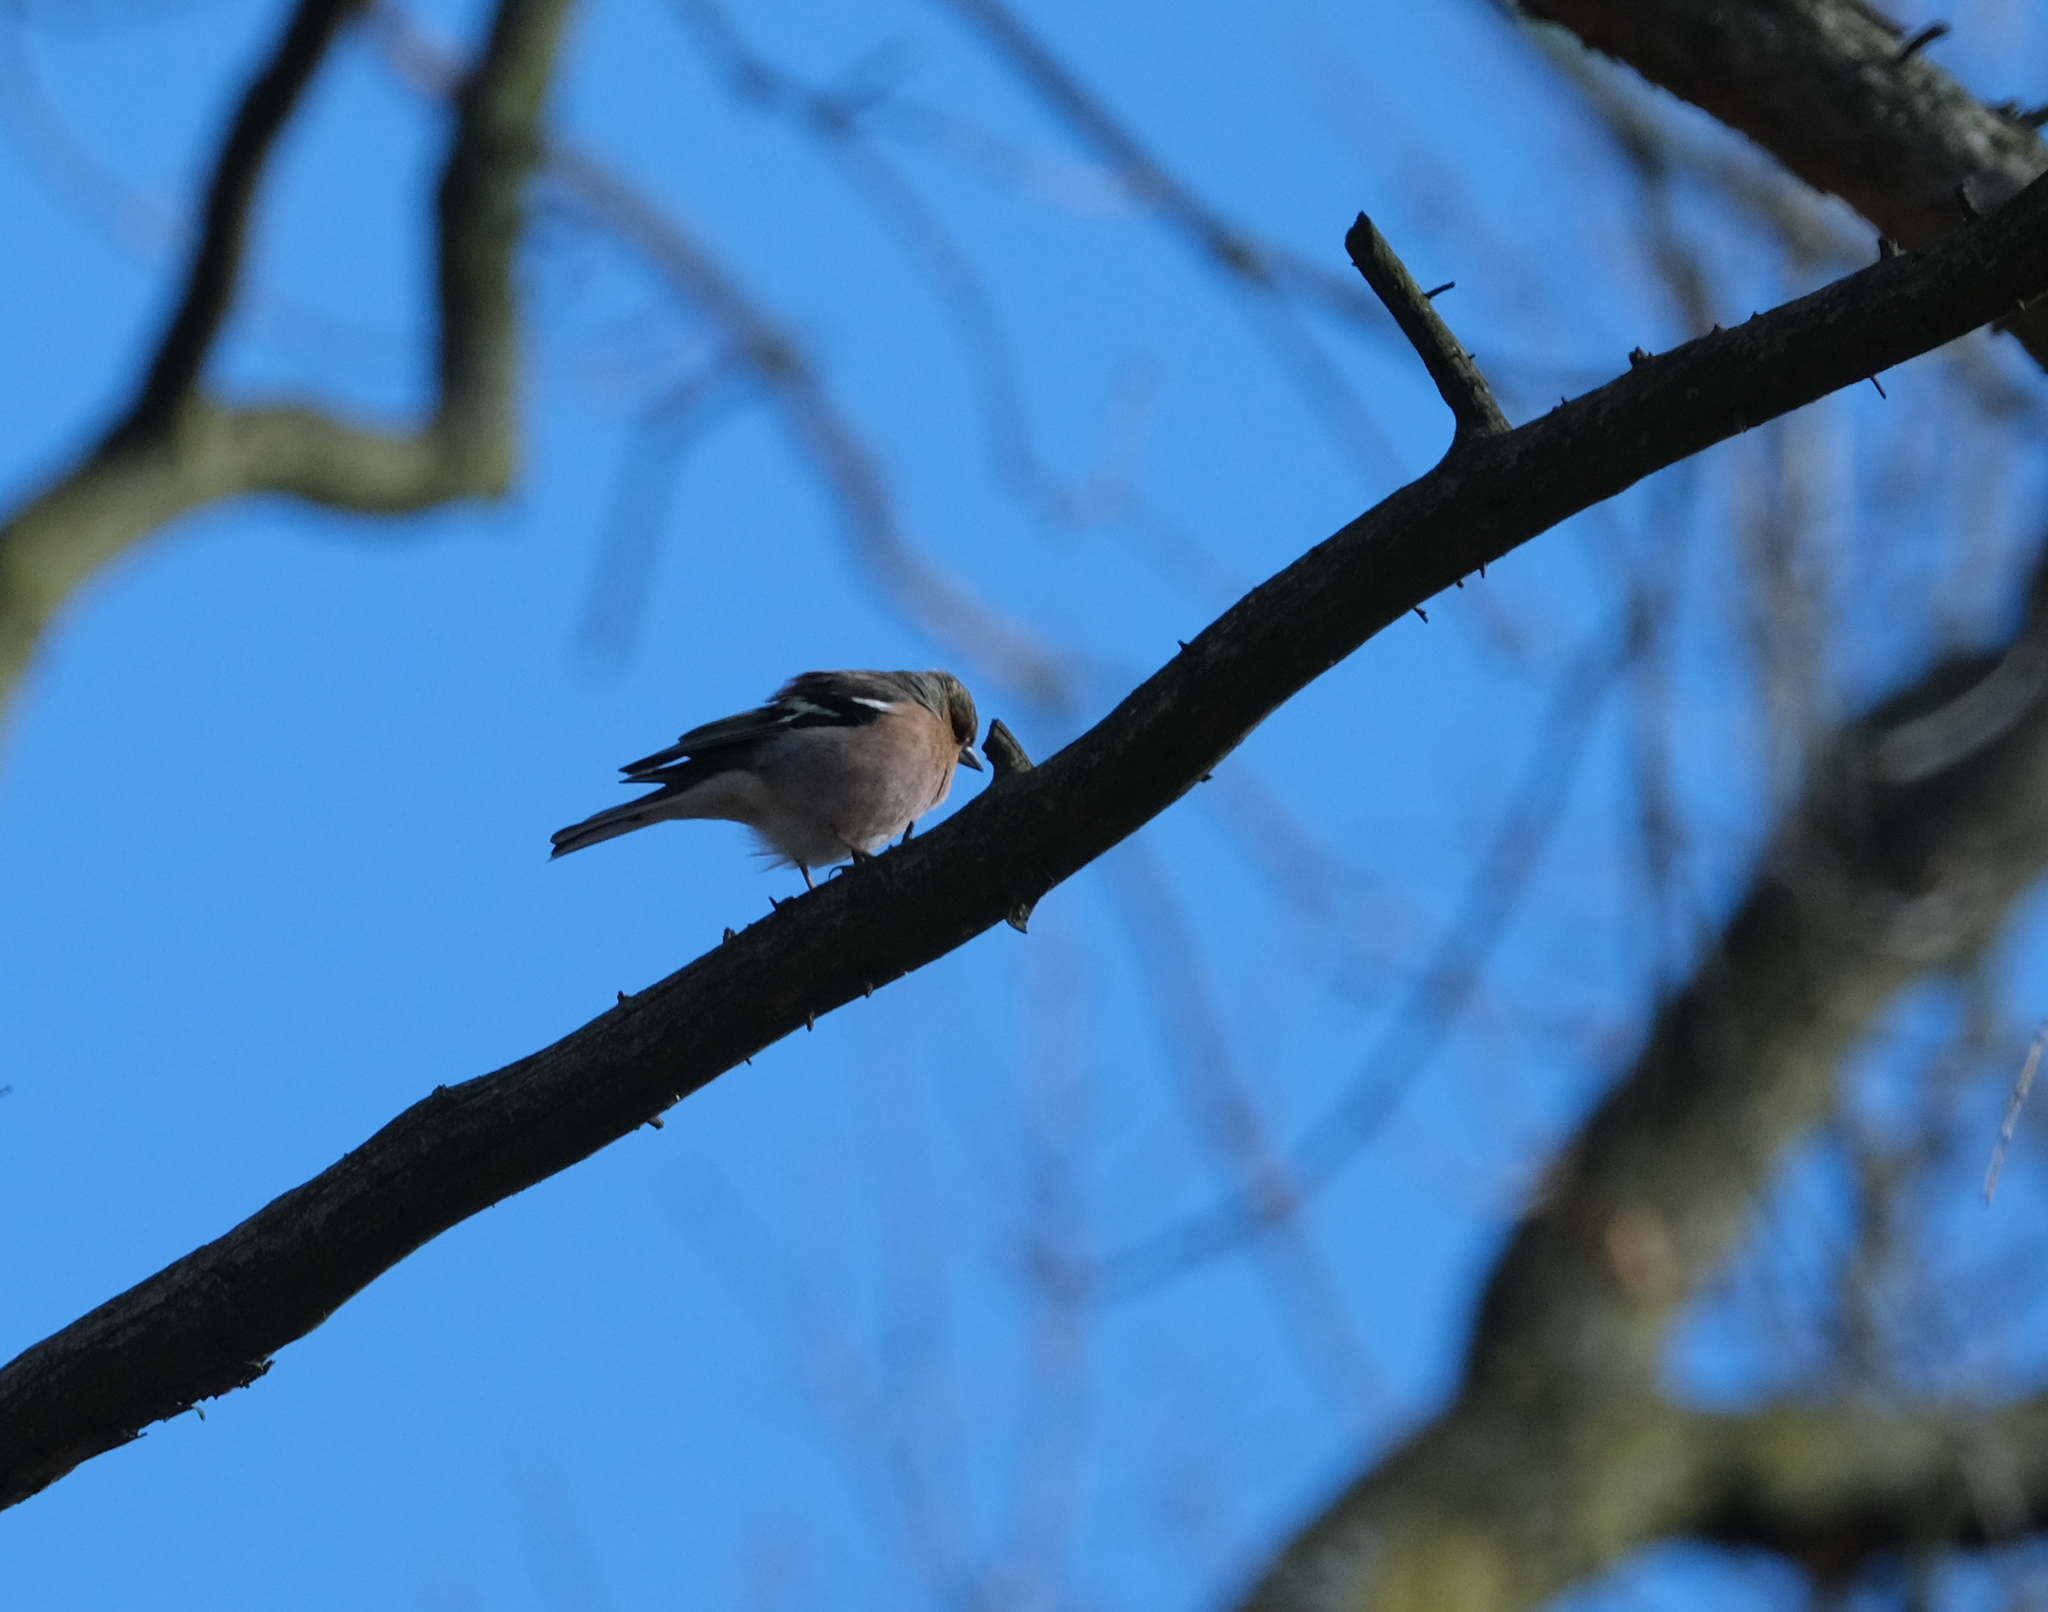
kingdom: Animalia
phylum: Chordata
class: Aves
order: Passeriformes
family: Fringillidae
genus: Fringilla
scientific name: Fringilla coelebs
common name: Common chaffinch
